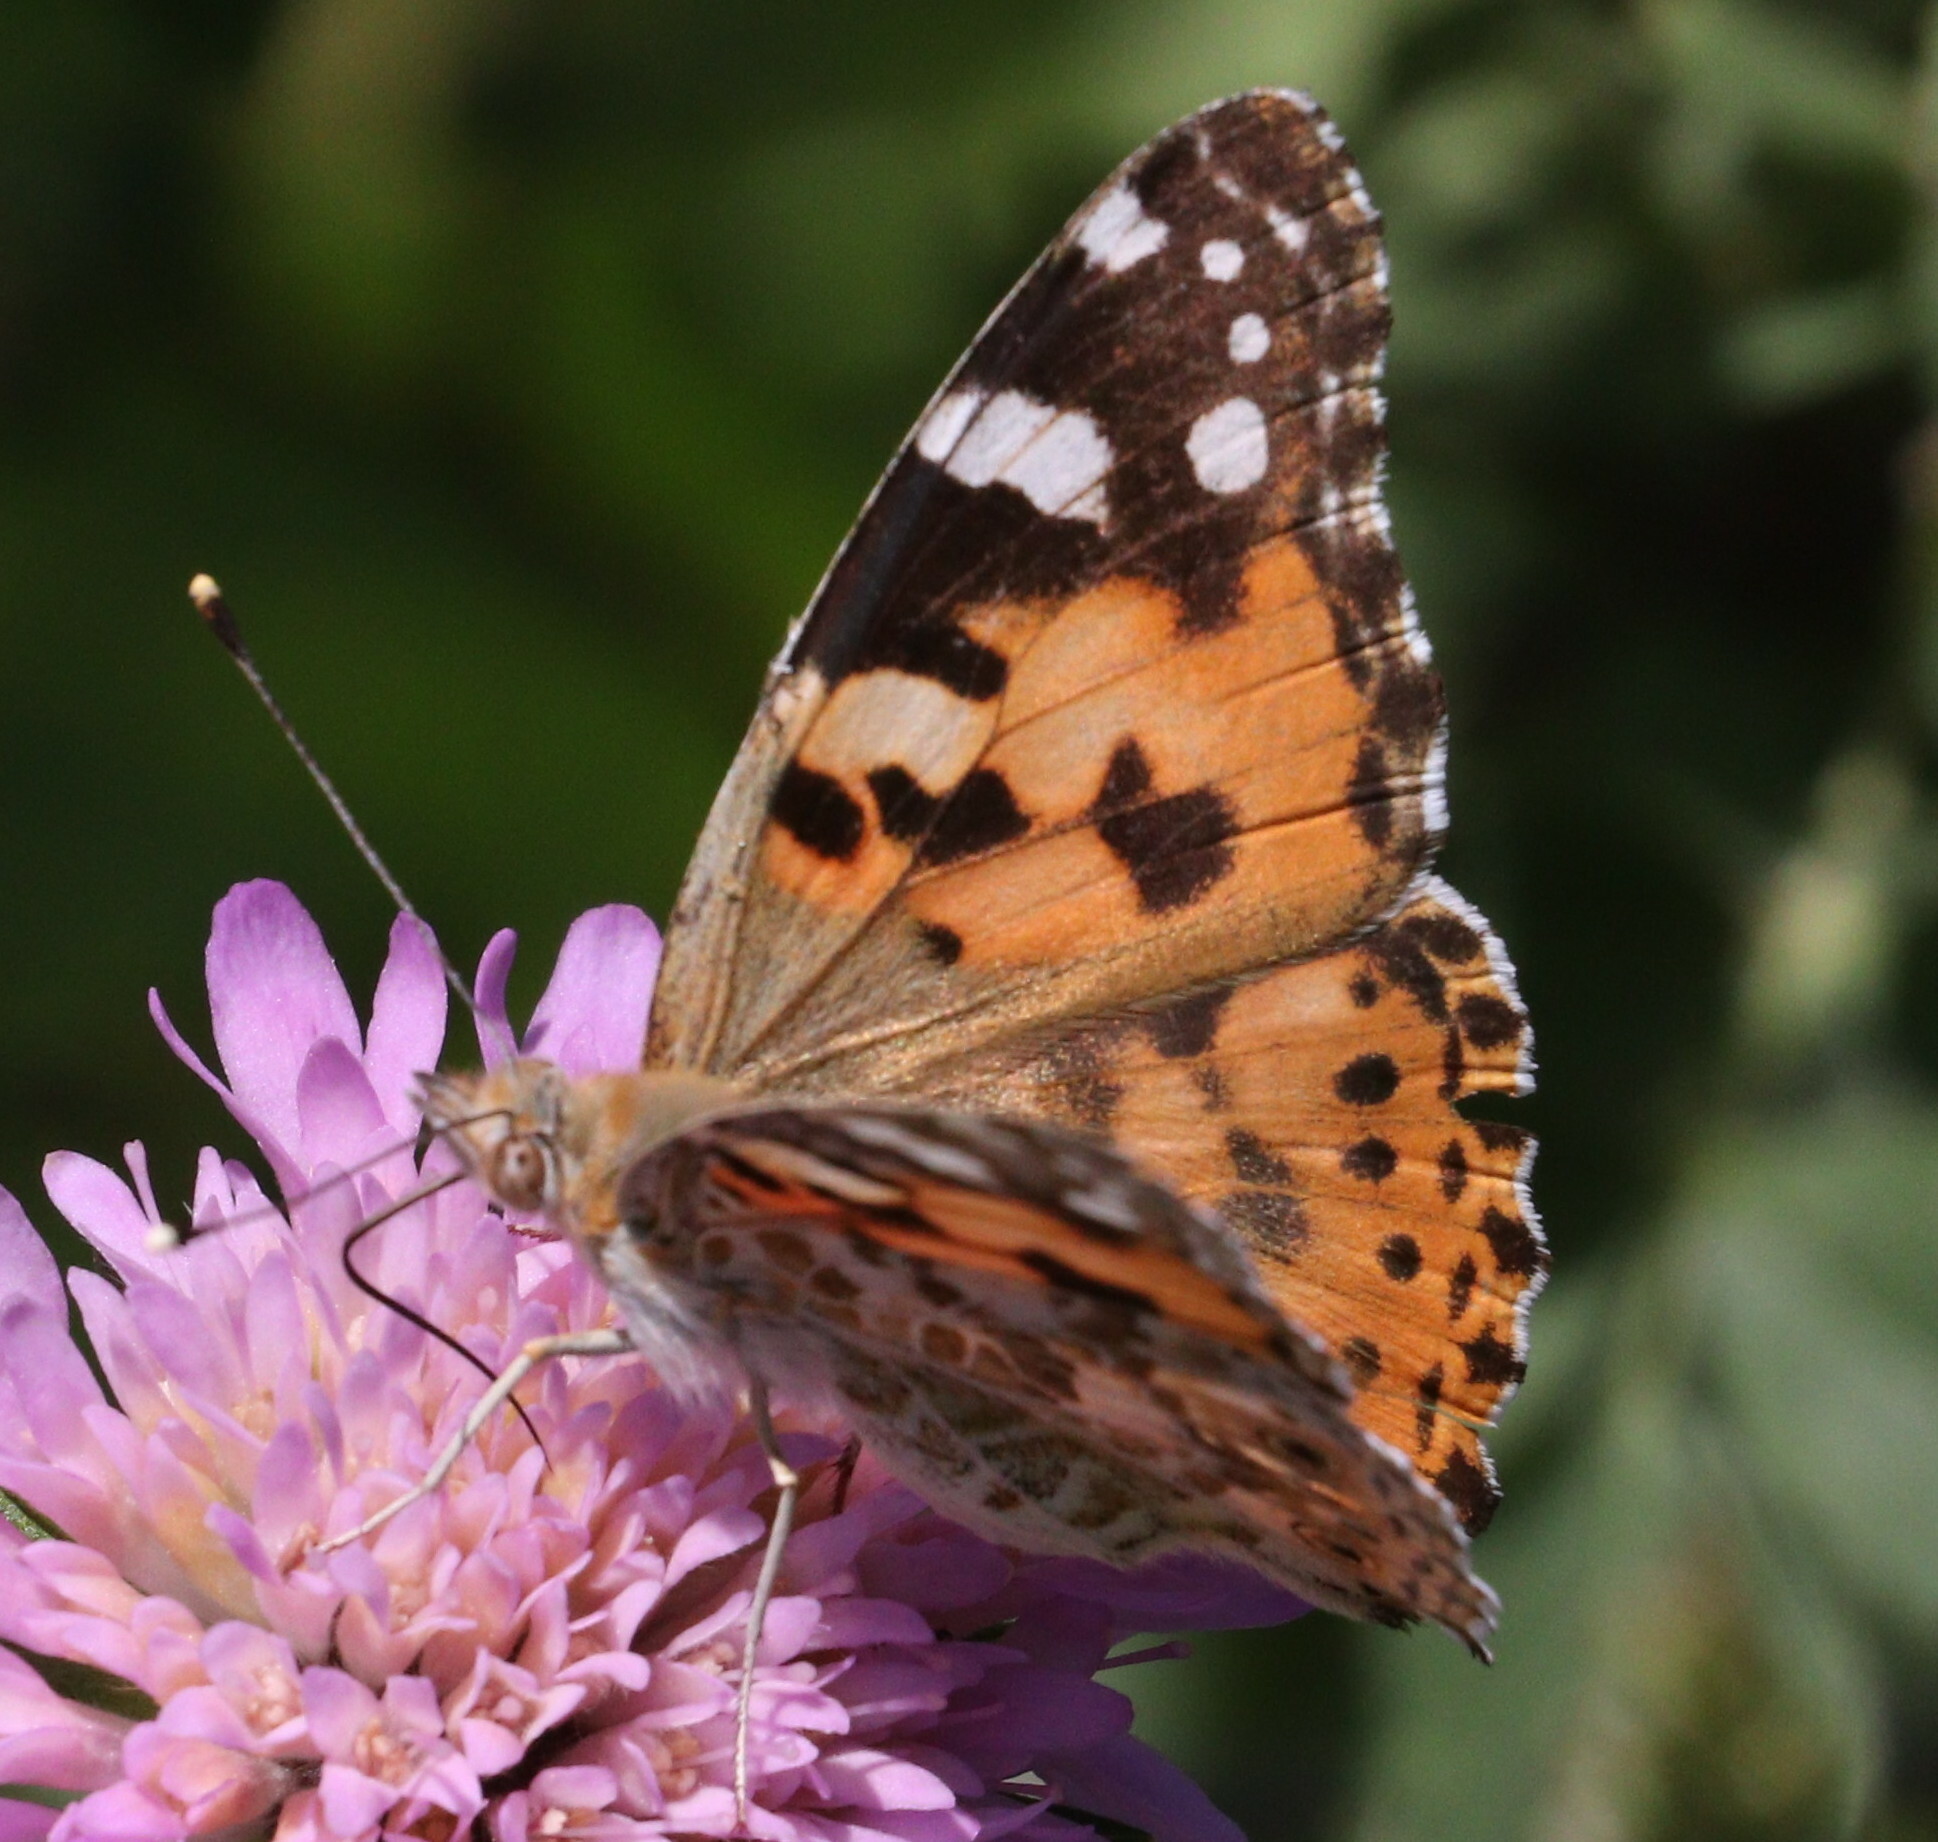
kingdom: Animalia
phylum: Arthropoda
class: Insecta
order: Lepidoptera
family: Nymphalidae
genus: Vanessa
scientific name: Vanessa cardui
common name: Painted lady
